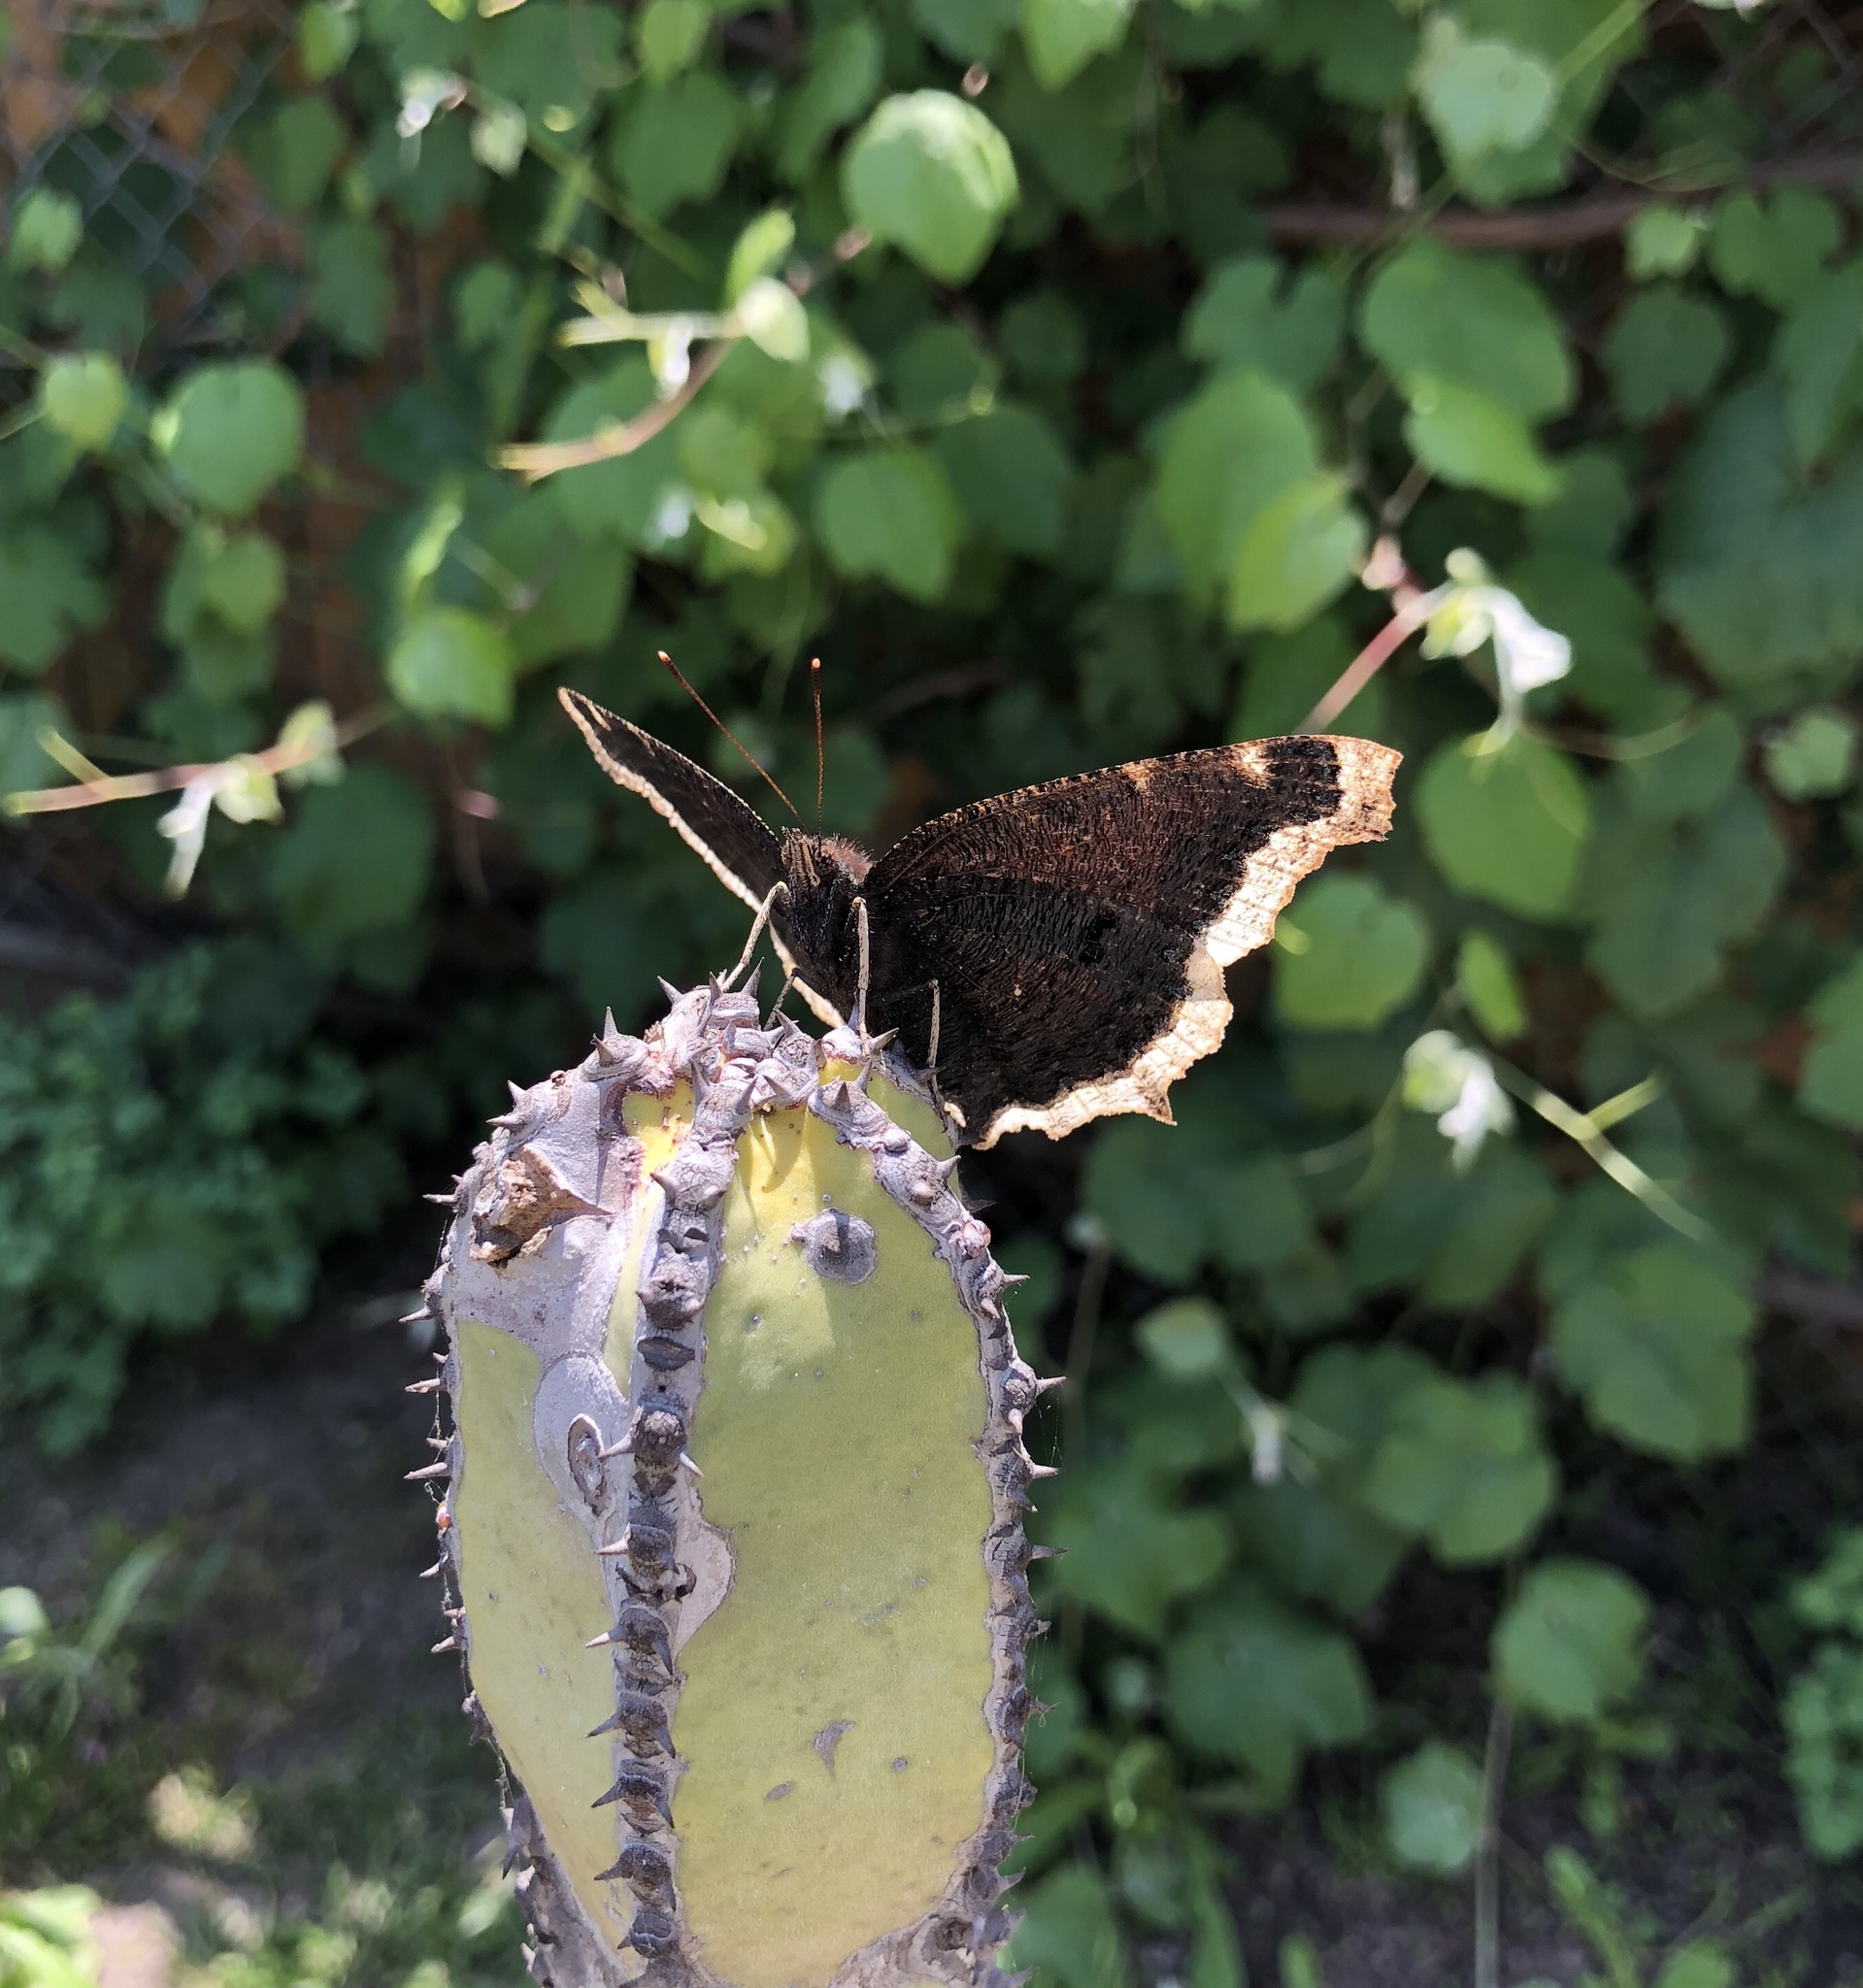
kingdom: Animalia
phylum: Arthropoda
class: Insecta
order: Lepidoptera
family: Nymphalidae
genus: Nymphalis
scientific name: Nymphalis antiopa
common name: Camberwell beauty
